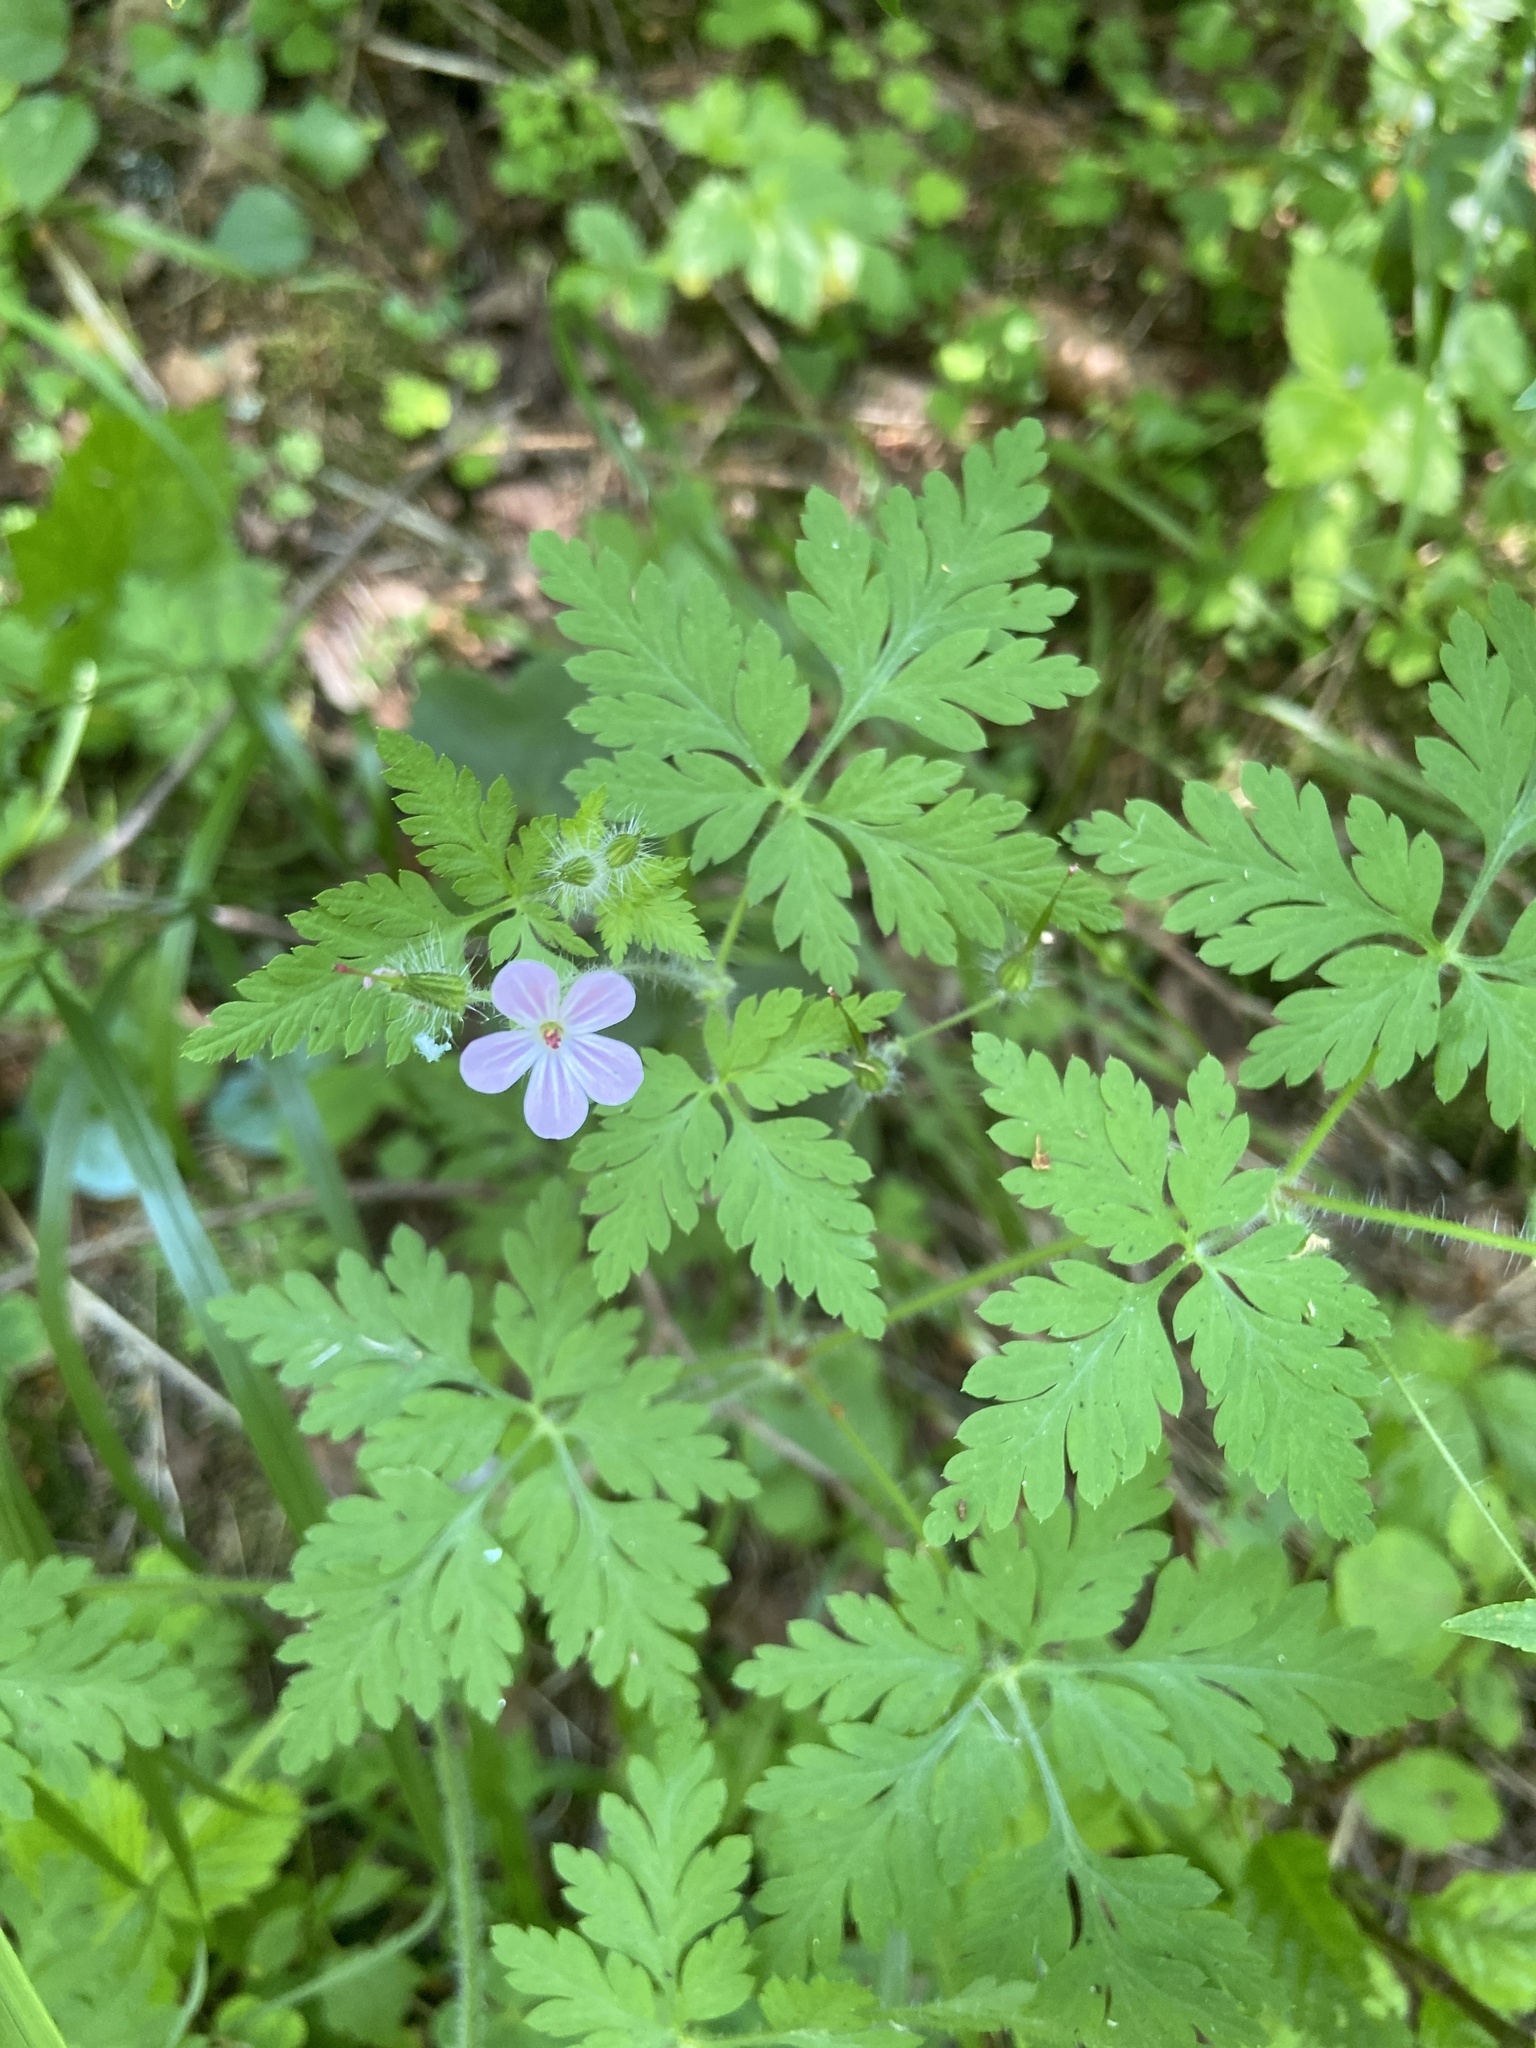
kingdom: Plantae
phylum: Tracheophyta
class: Magnoliopsida
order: Geraniales
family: Geraniaceae
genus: Geranium
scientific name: Geranium robertianum
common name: Herb-robert
